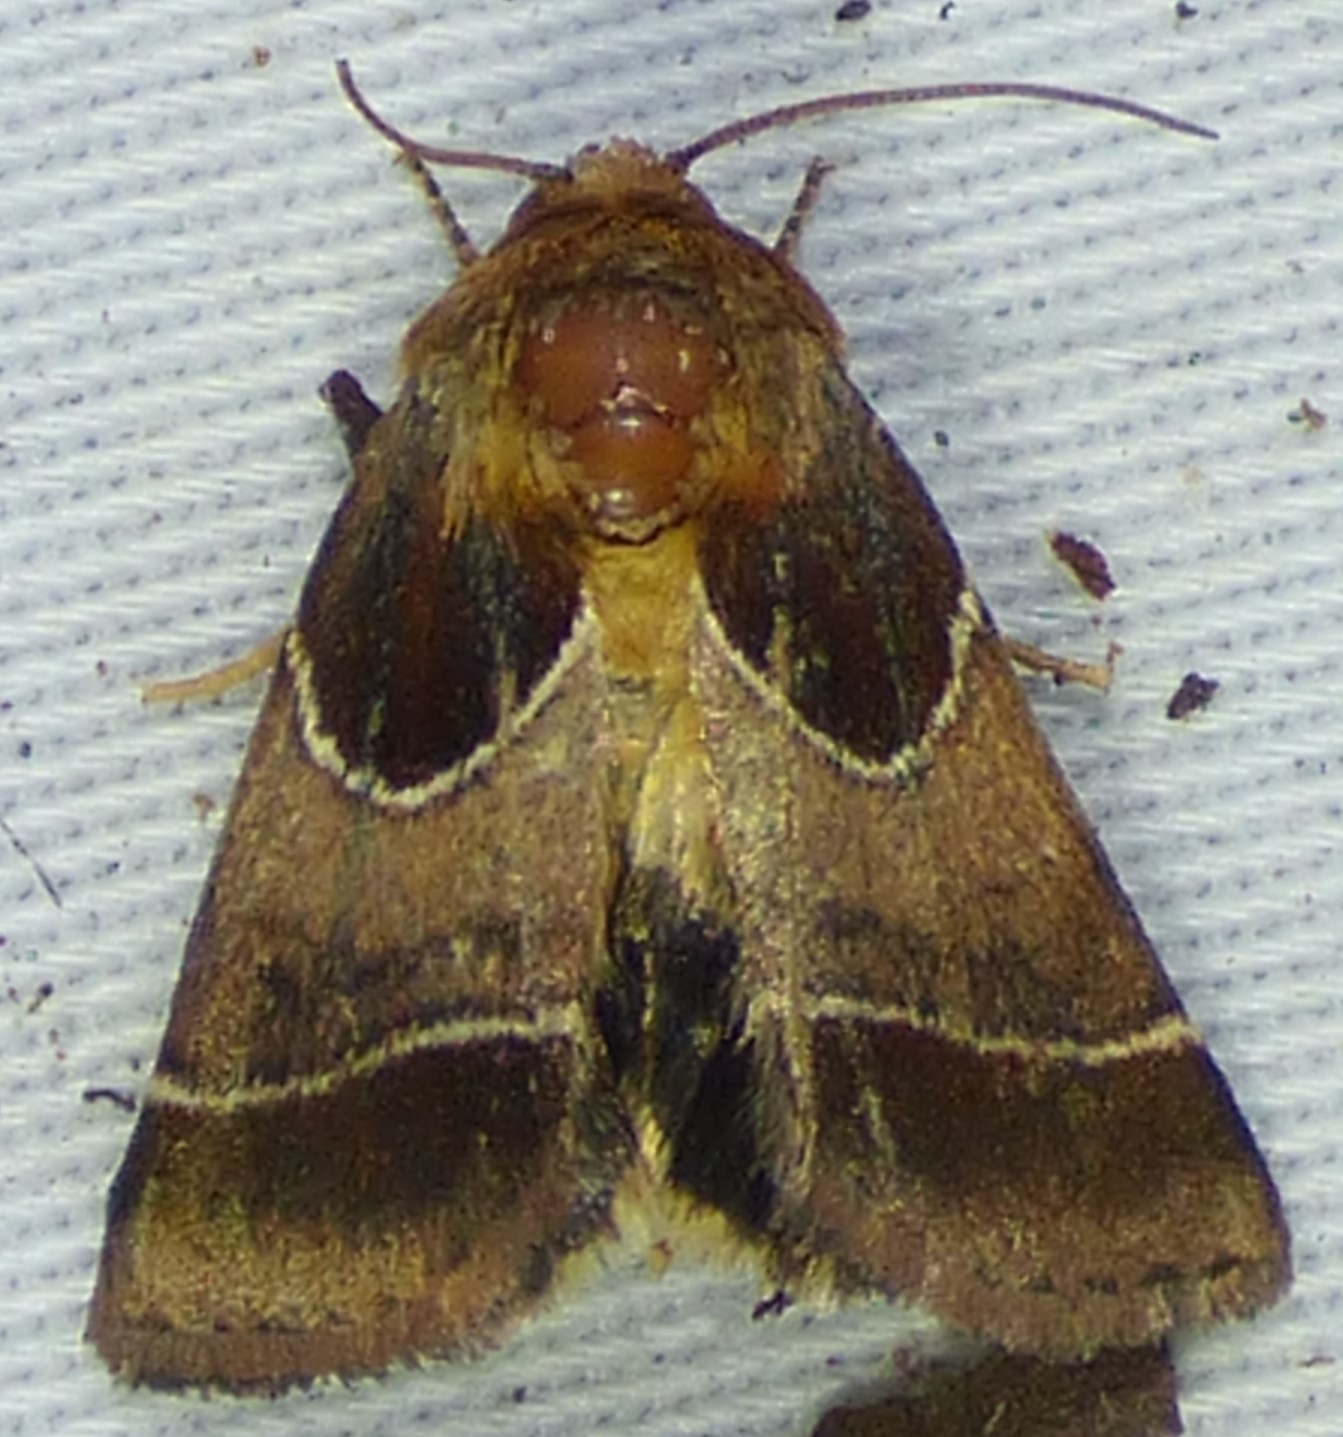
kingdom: Animalia
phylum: Arthropoda
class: Insecta
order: Lepidoptera
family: Noctuidae
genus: Schinia
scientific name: Schinia arcigera
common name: Arcigera flower moth
